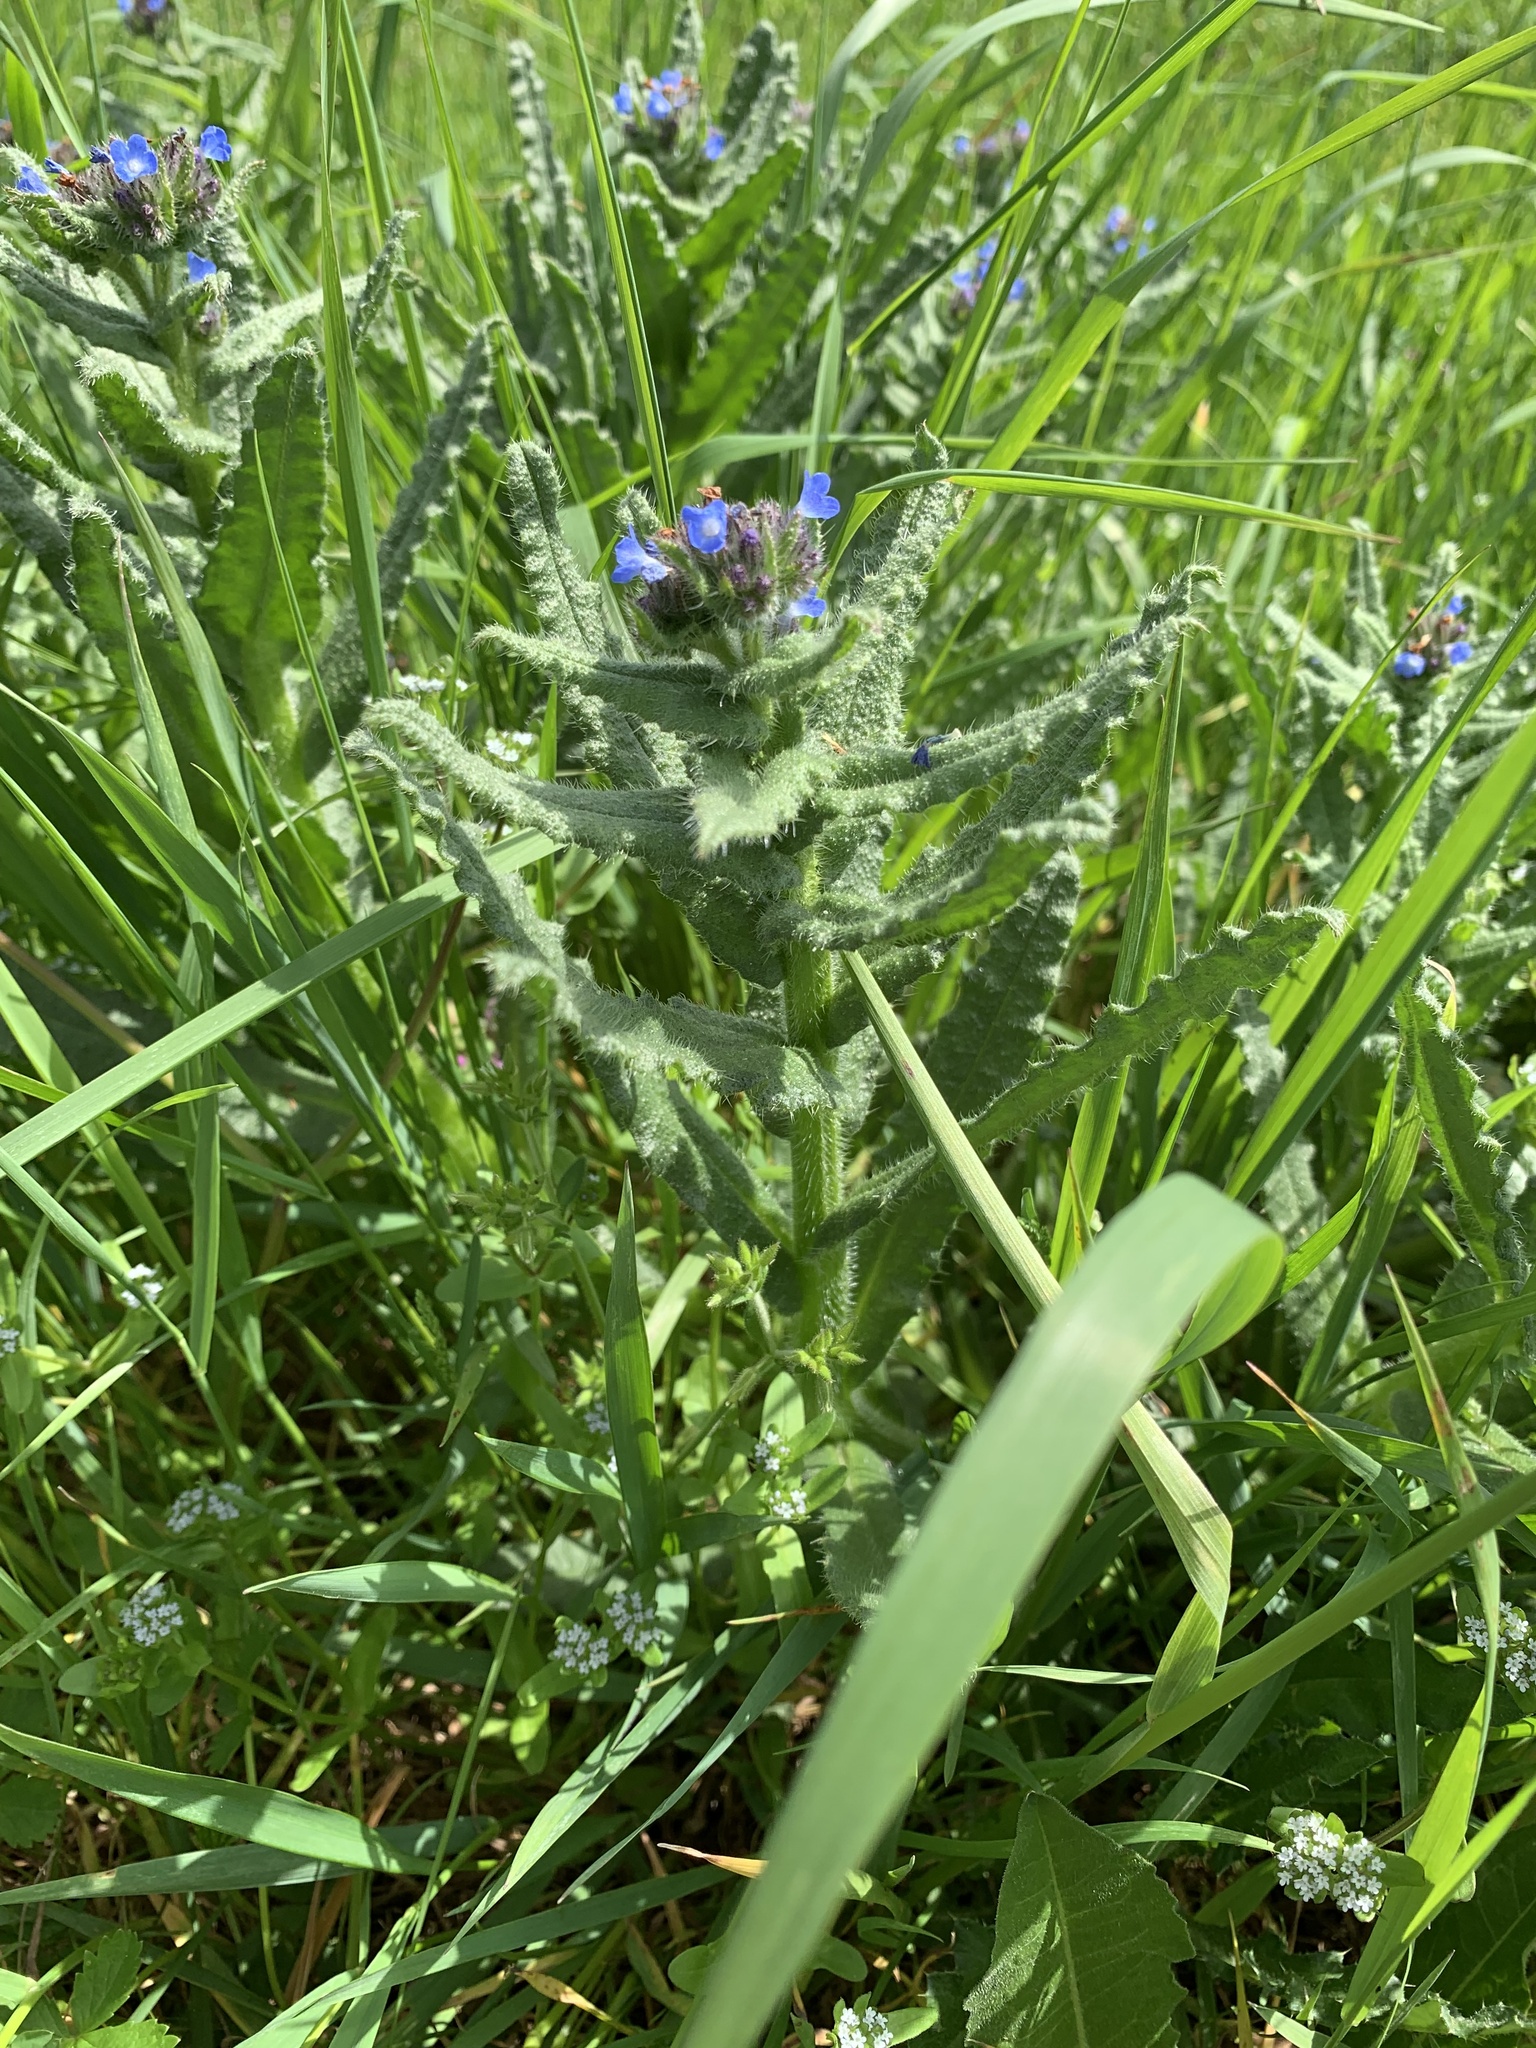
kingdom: Plantae
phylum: Tracheophyta
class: Magnoliopsida
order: Boraginales
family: Boraginaceae
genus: Lycopsis
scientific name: Lycopsis arvensis
